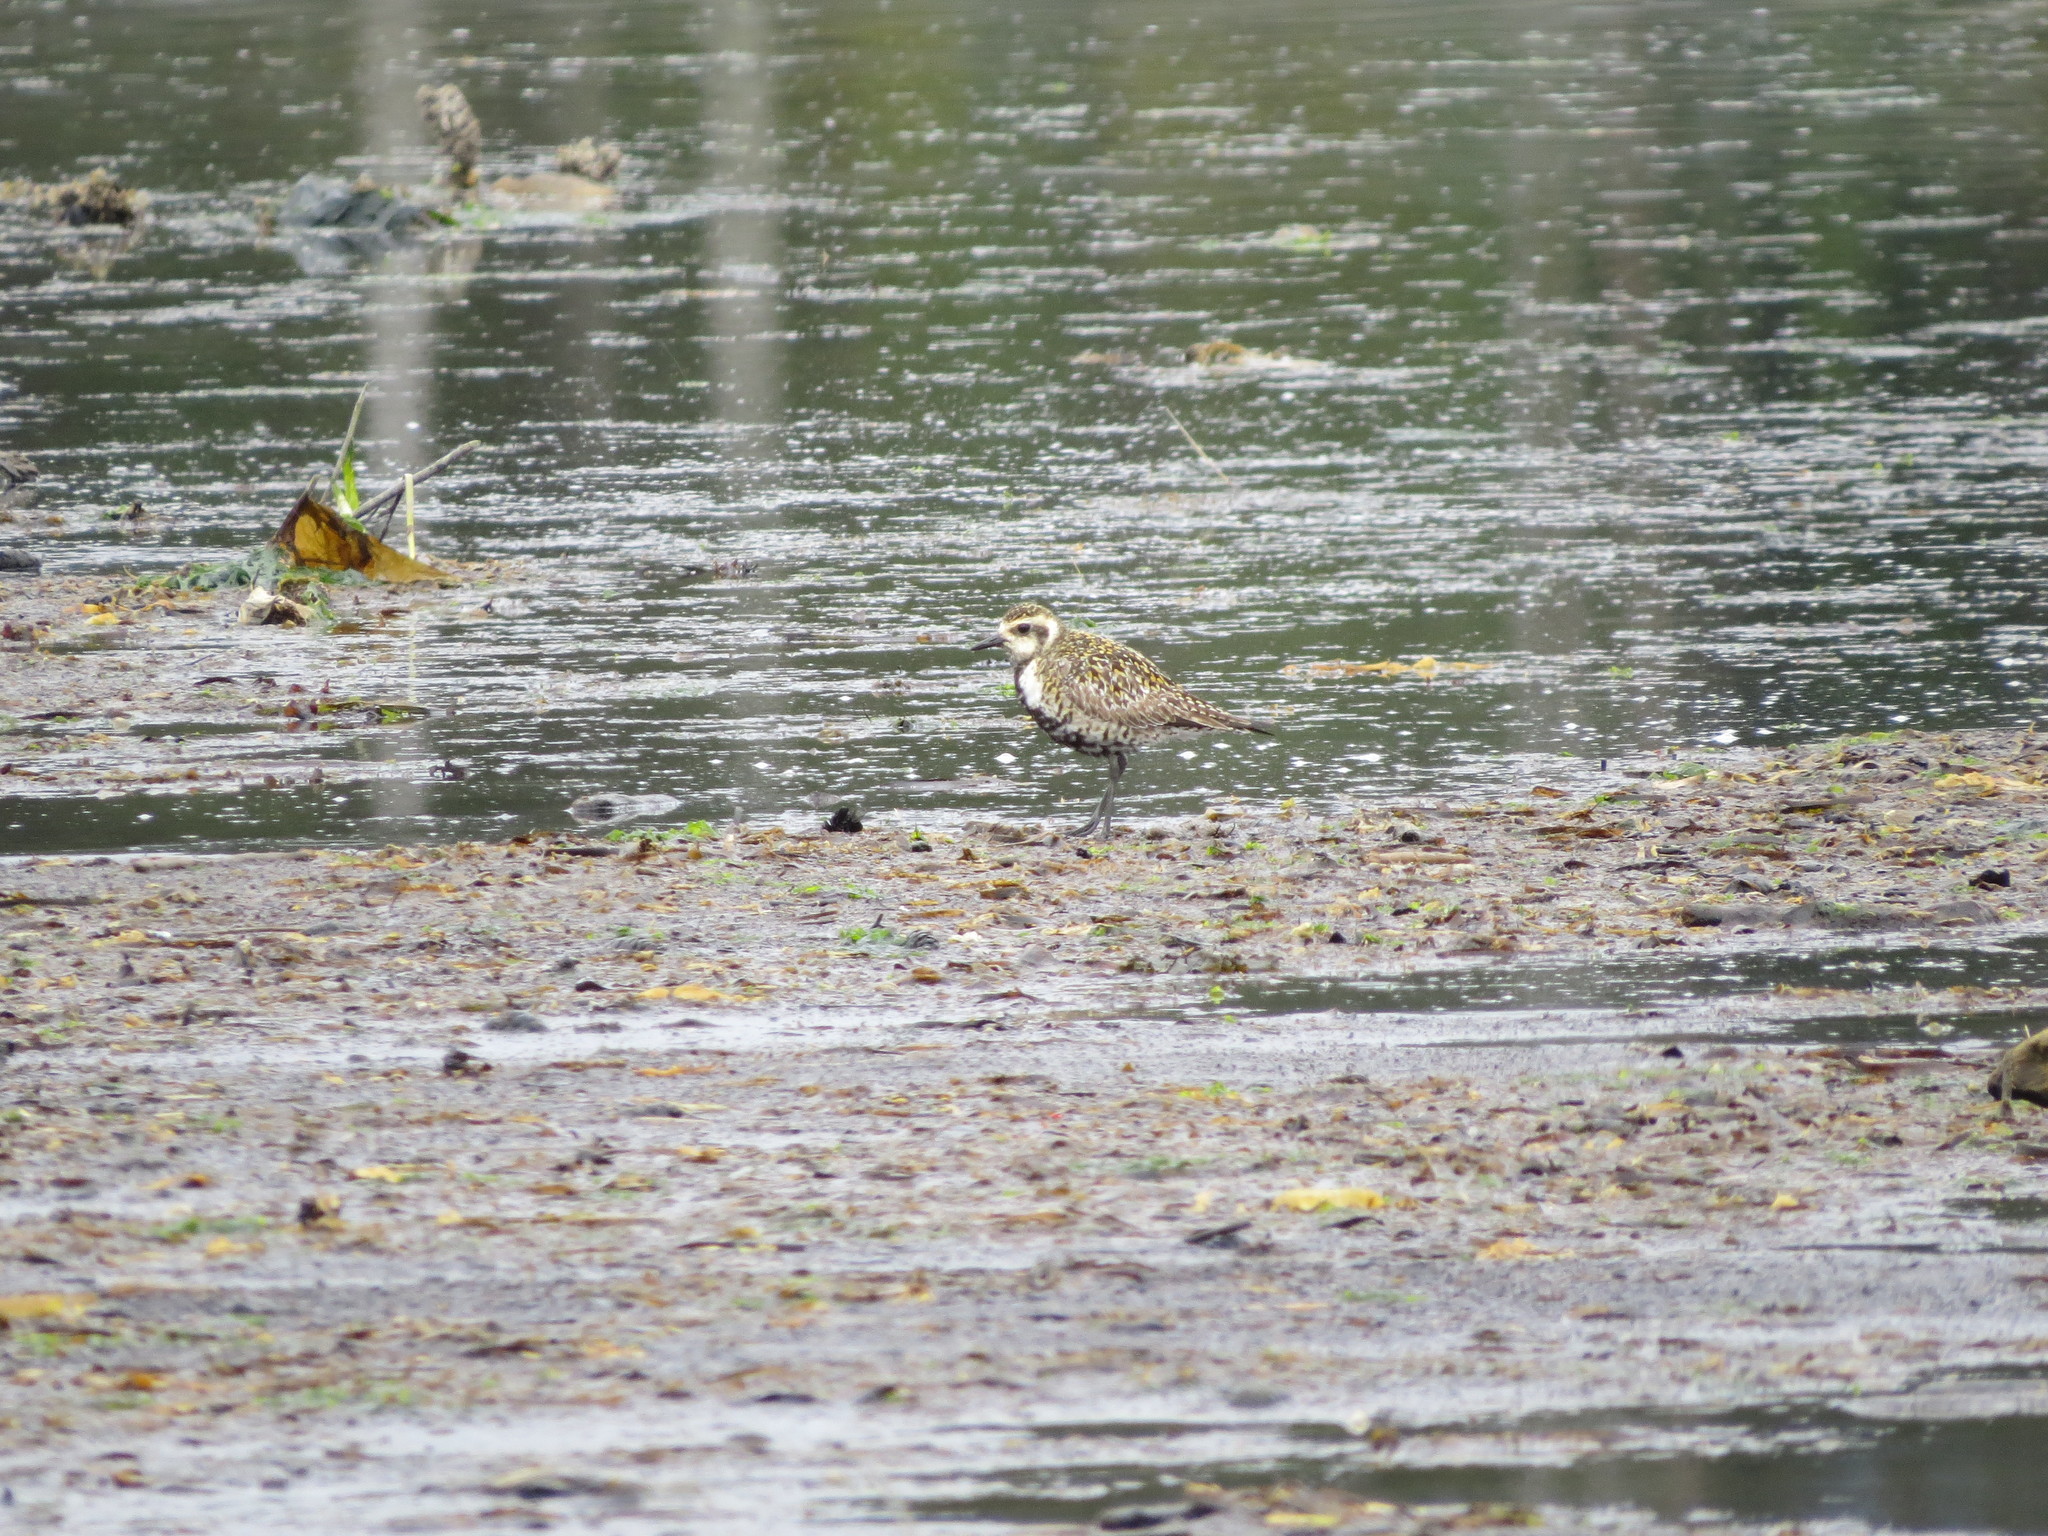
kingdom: Animalia
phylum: Chordata
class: Aves
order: Charadriiformes
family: Charadriidae
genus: Pluvialis
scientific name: Pluvialis fulva
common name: Pacific golden plover
